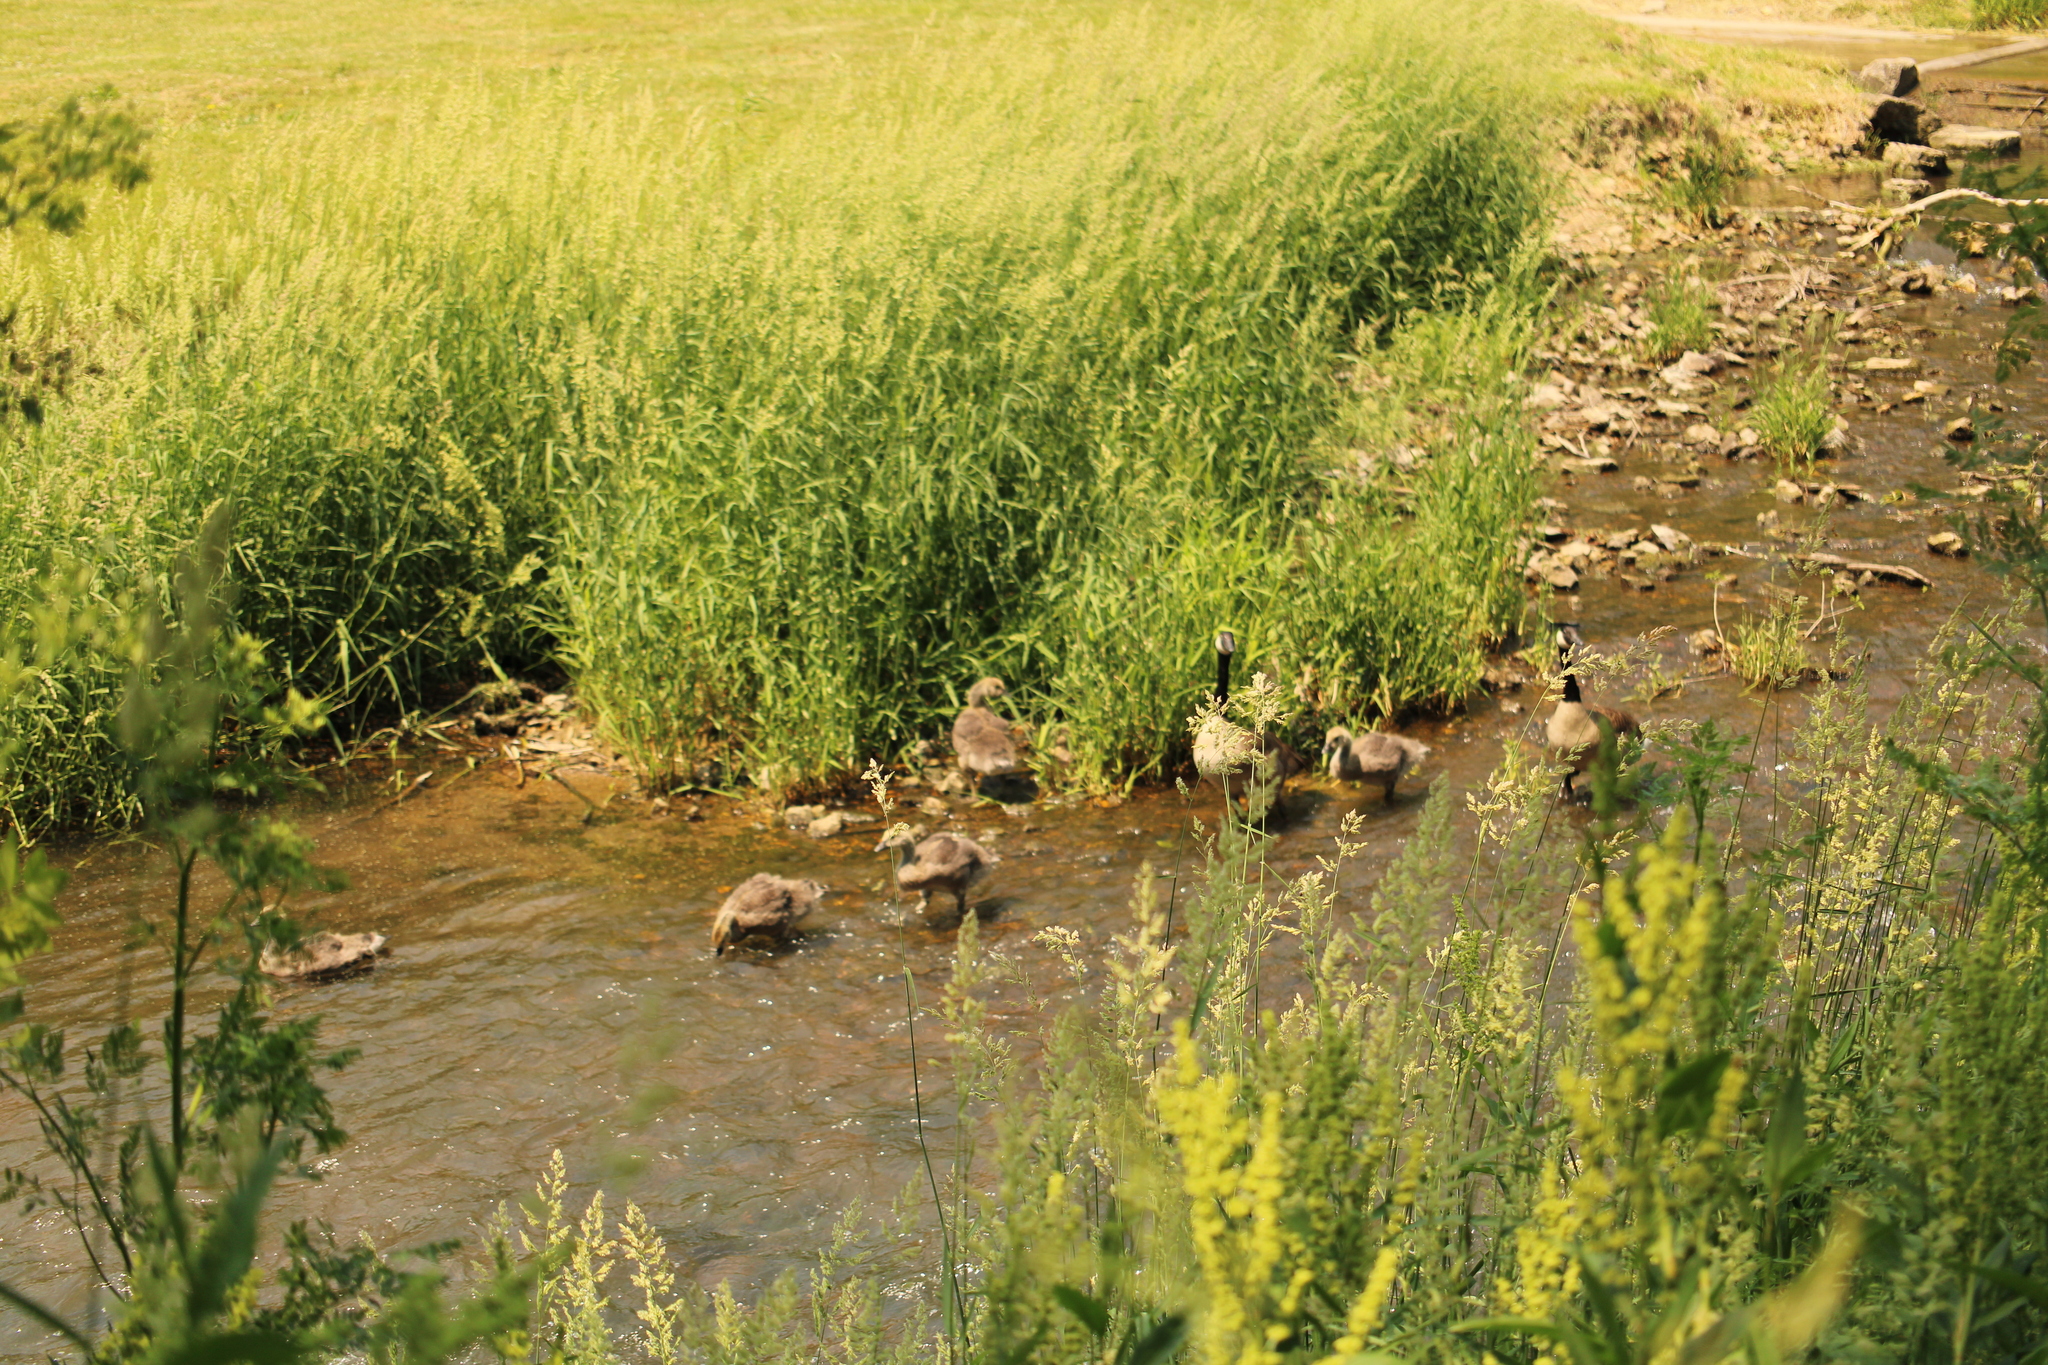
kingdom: Animalia
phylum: Chordata
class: Aves
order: Anseriformes
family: Anatidae
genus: Branta
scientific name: Branta canadensis
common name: Canada goose
